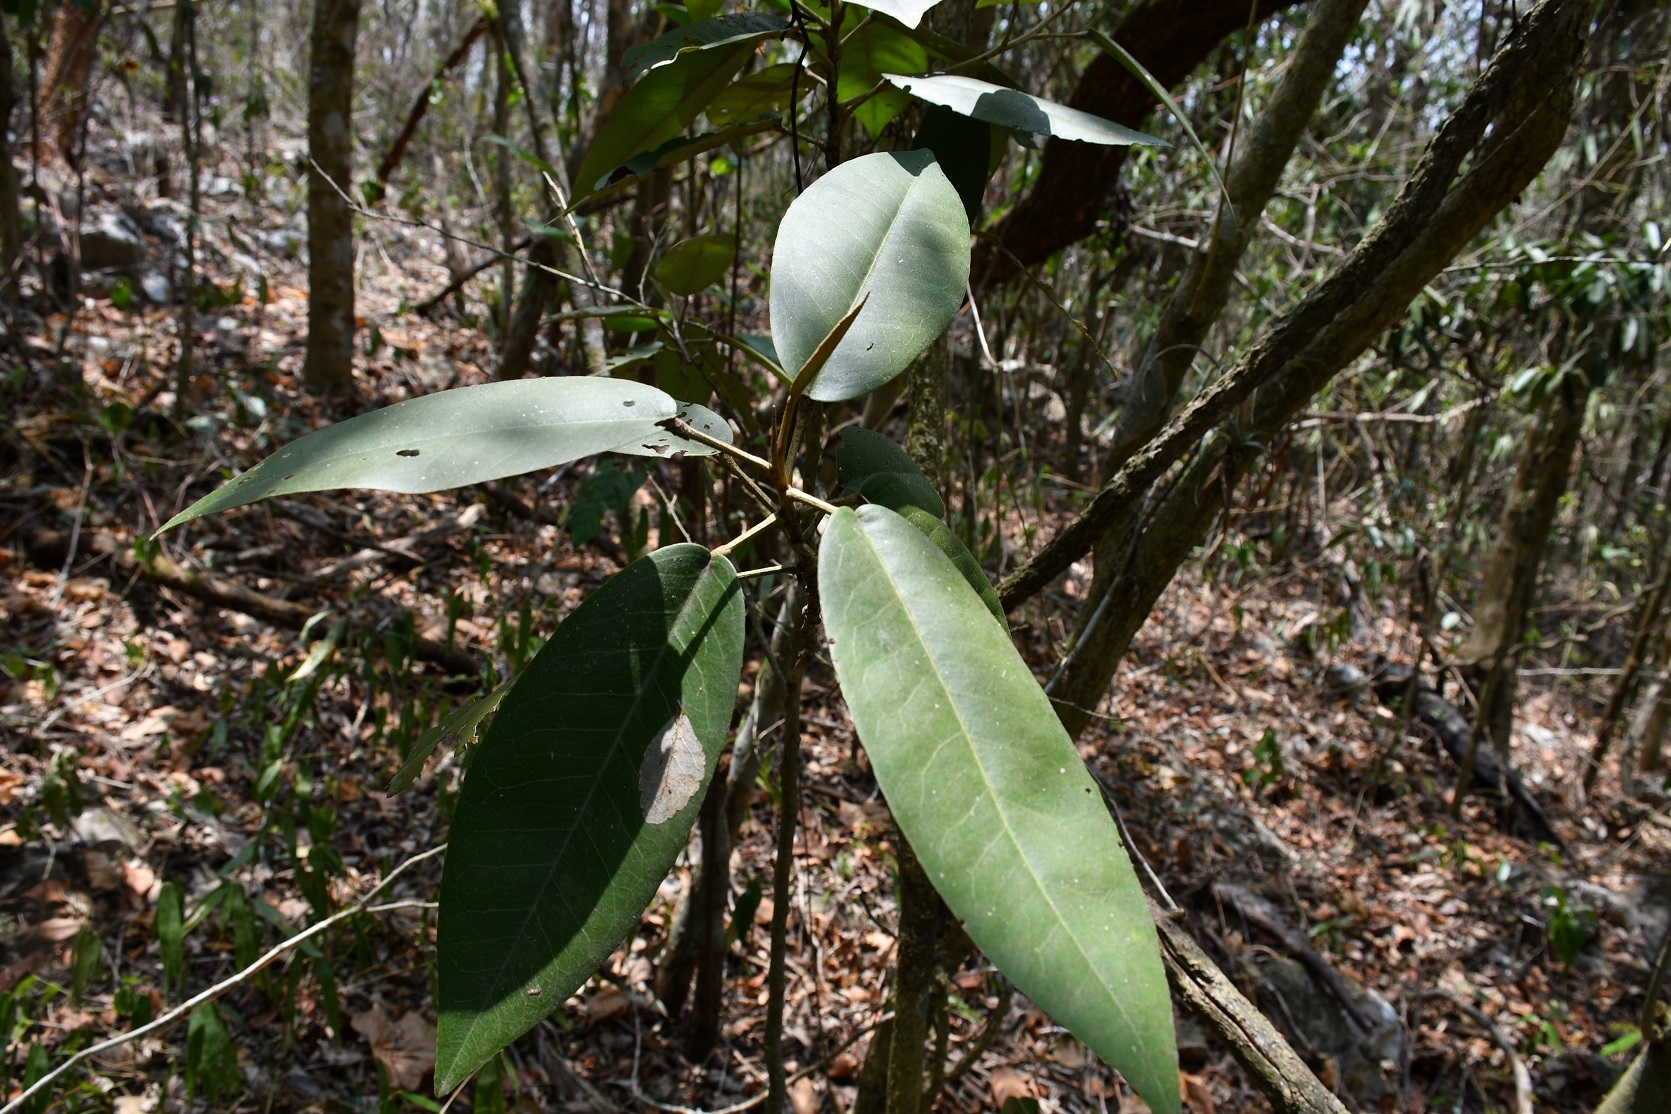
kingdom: Plantae
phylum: Tracheophyta
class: Magnoliopsida
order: Brassicales
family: Capparaceae
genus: Quadrella
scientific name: Quadrella pringlei
